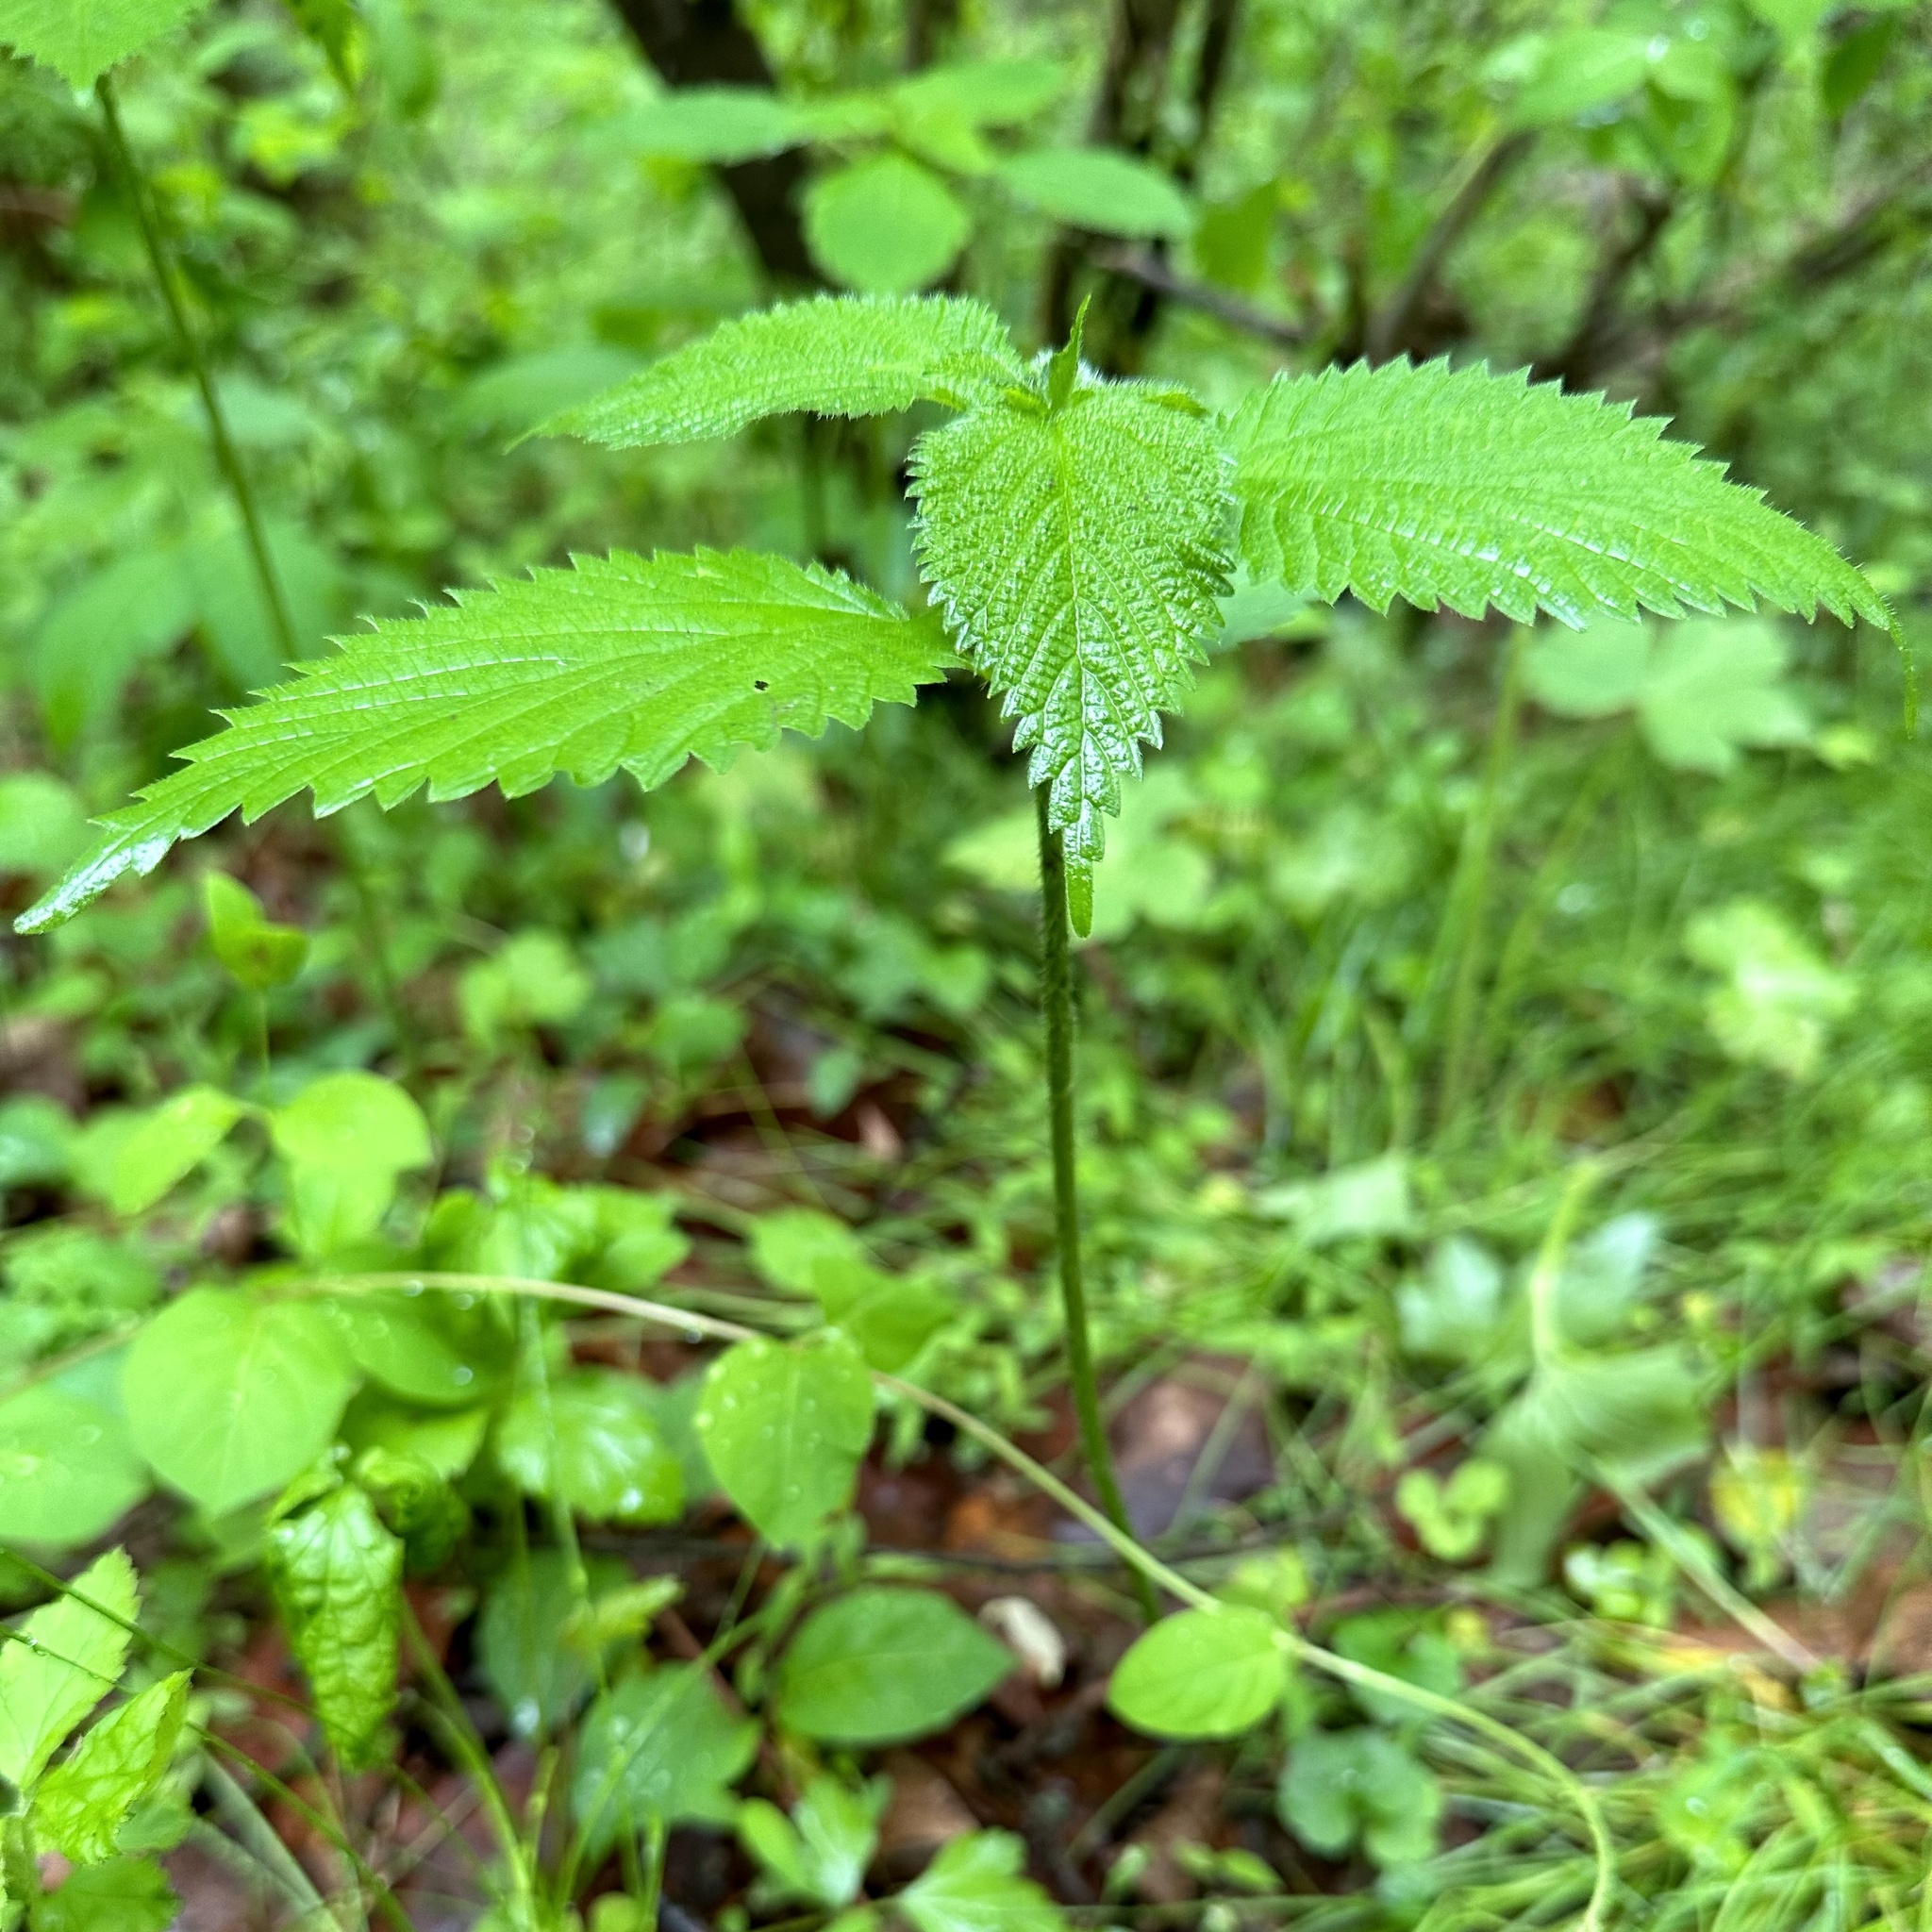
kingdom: Plantae
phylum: Tracheophyta
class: Magnoliopsida
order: Rosales
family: Urticaceae
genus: Laportea
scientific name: Laportea canadensis
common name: Canada nettle
